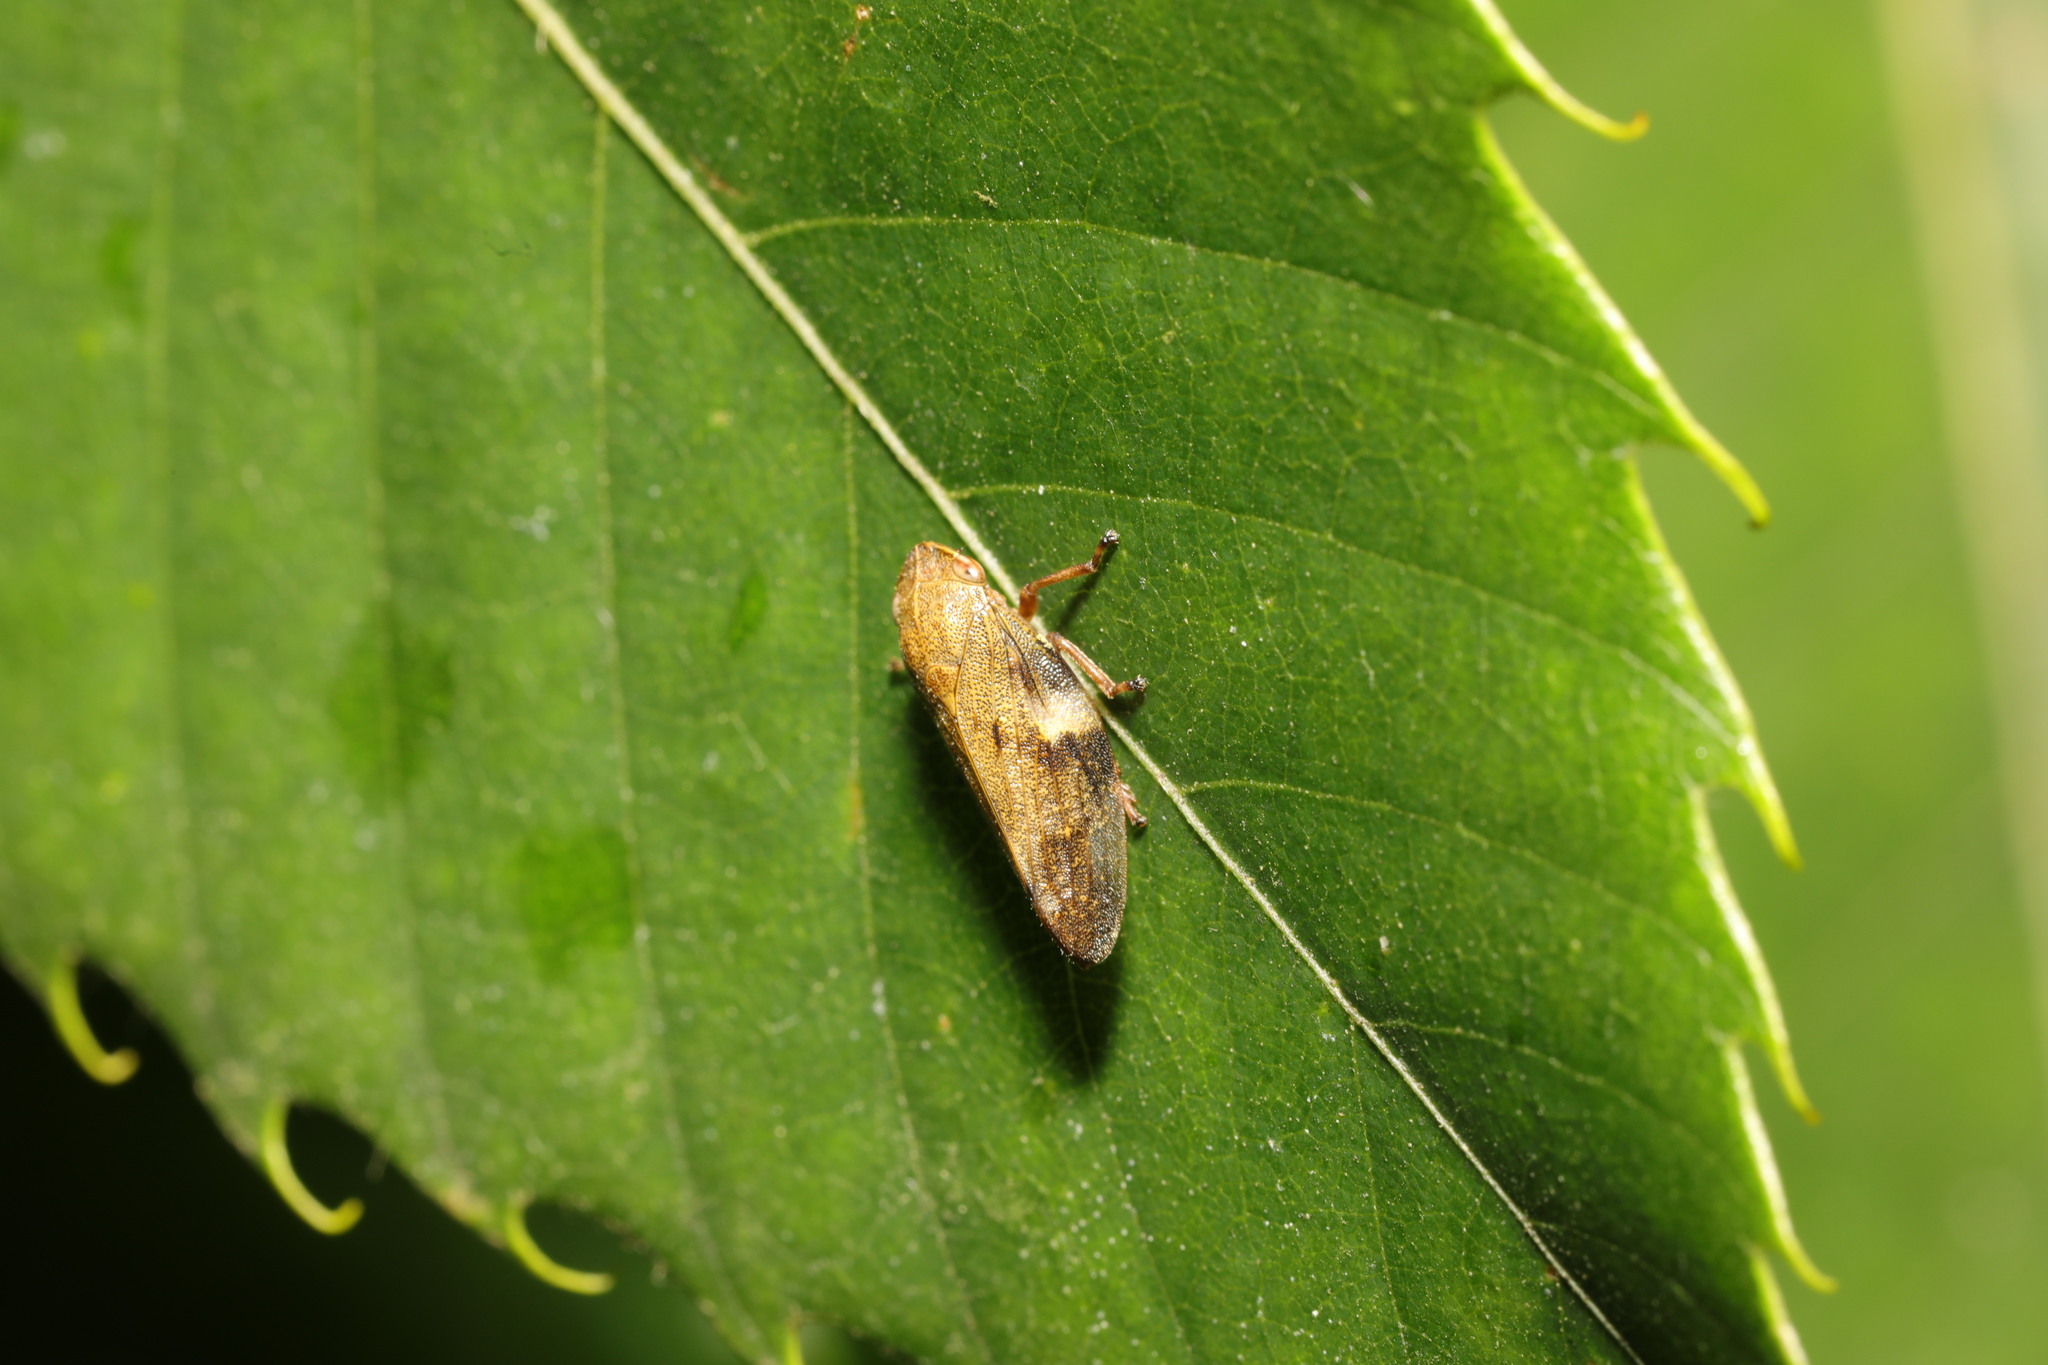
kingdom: Animalia
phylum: Arthropoda
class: Insecta
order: Hemiptera
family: Aphrophoridae
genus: Aphrophora
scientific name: Aphrophora alni
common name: European alder spittlebug
